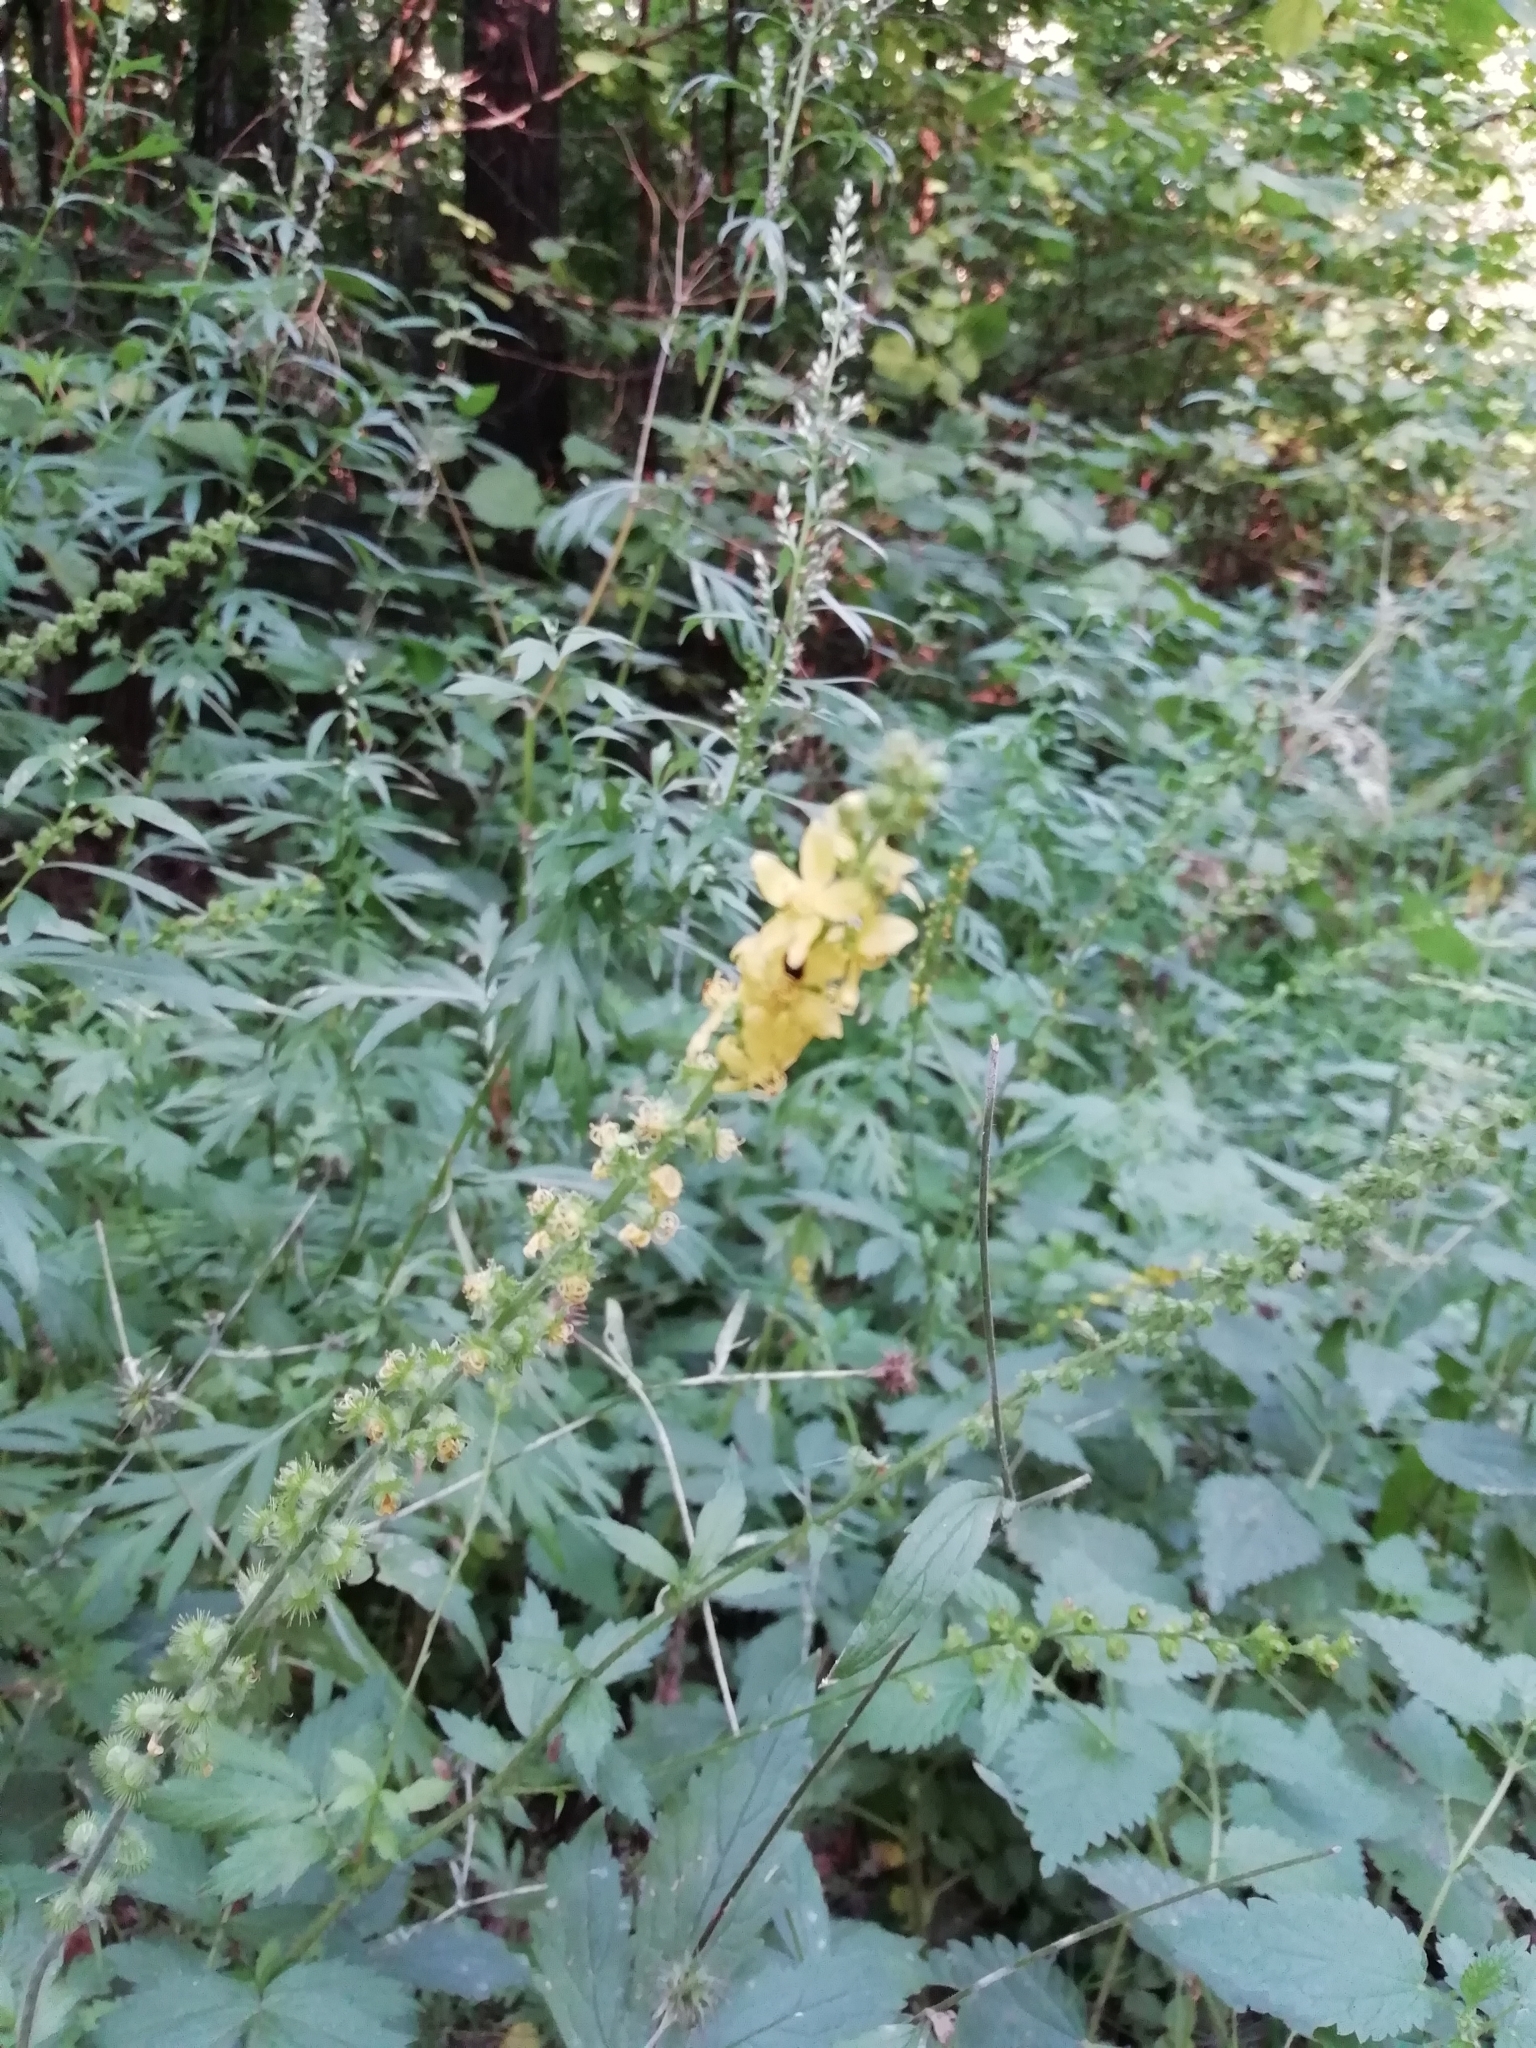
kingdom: Plantae
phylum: Tracheophyta
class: Magnoliopsida
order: Rosales
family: Rosaceae
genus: Agrimonia
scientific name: Agrimonia pilosa
